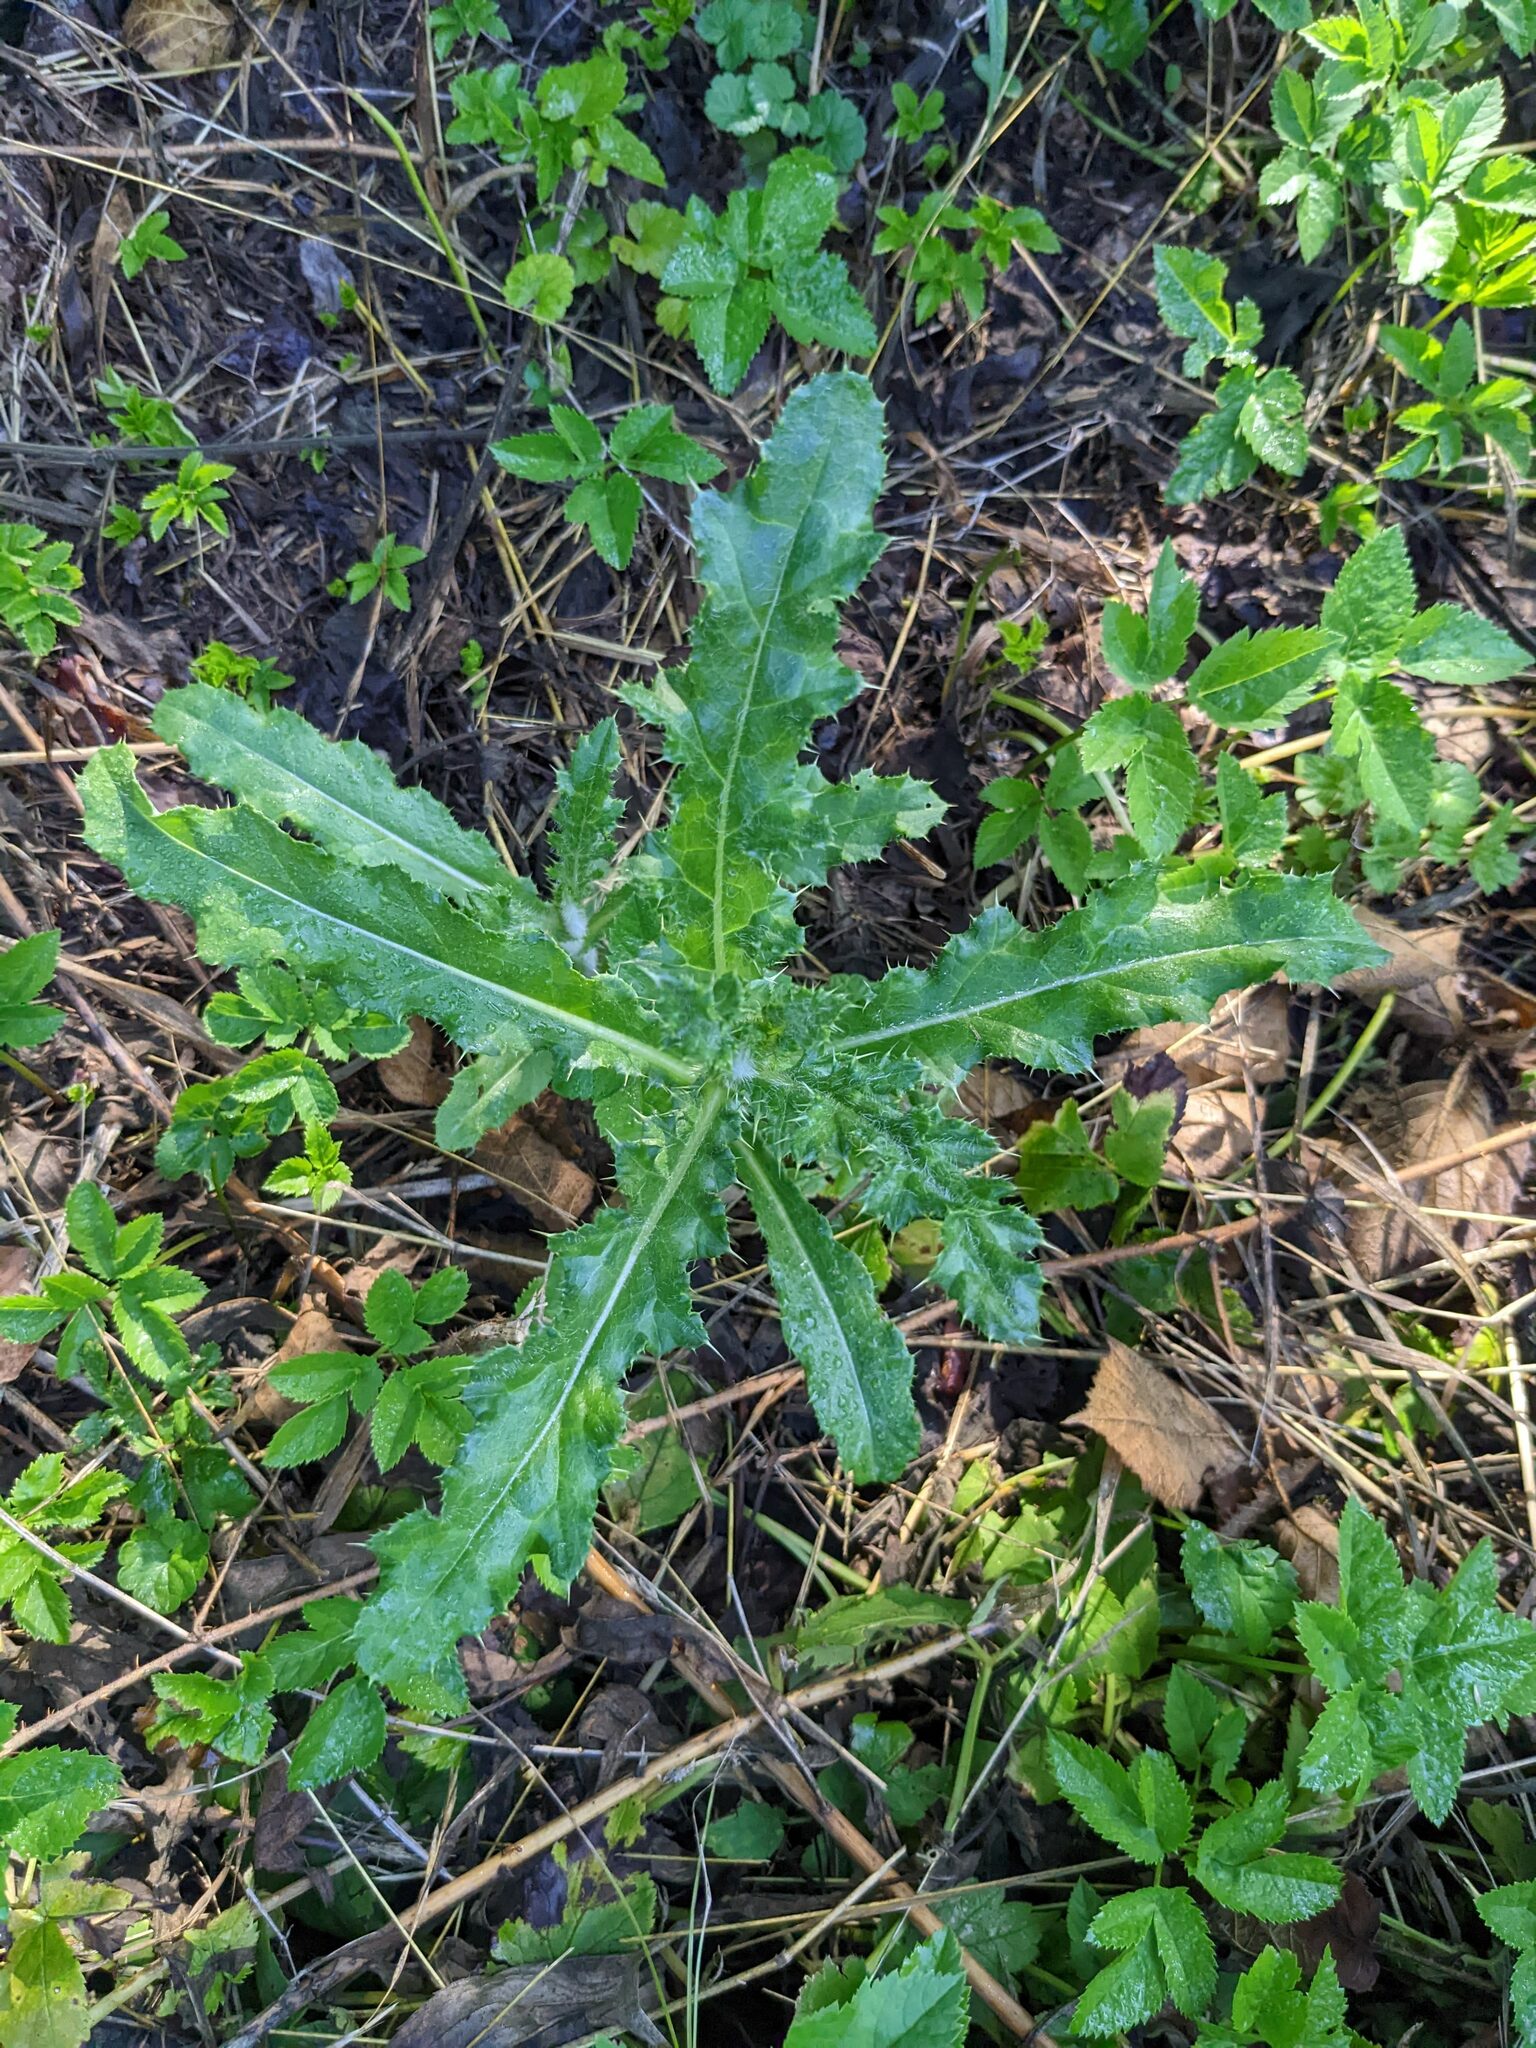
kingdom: Plantae
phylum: Tracheophyta
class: Magnoliopsida
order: Asterales
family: Asteraceae
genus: Cirsium
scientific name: Cirsium arvense
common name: Creeping thistle
